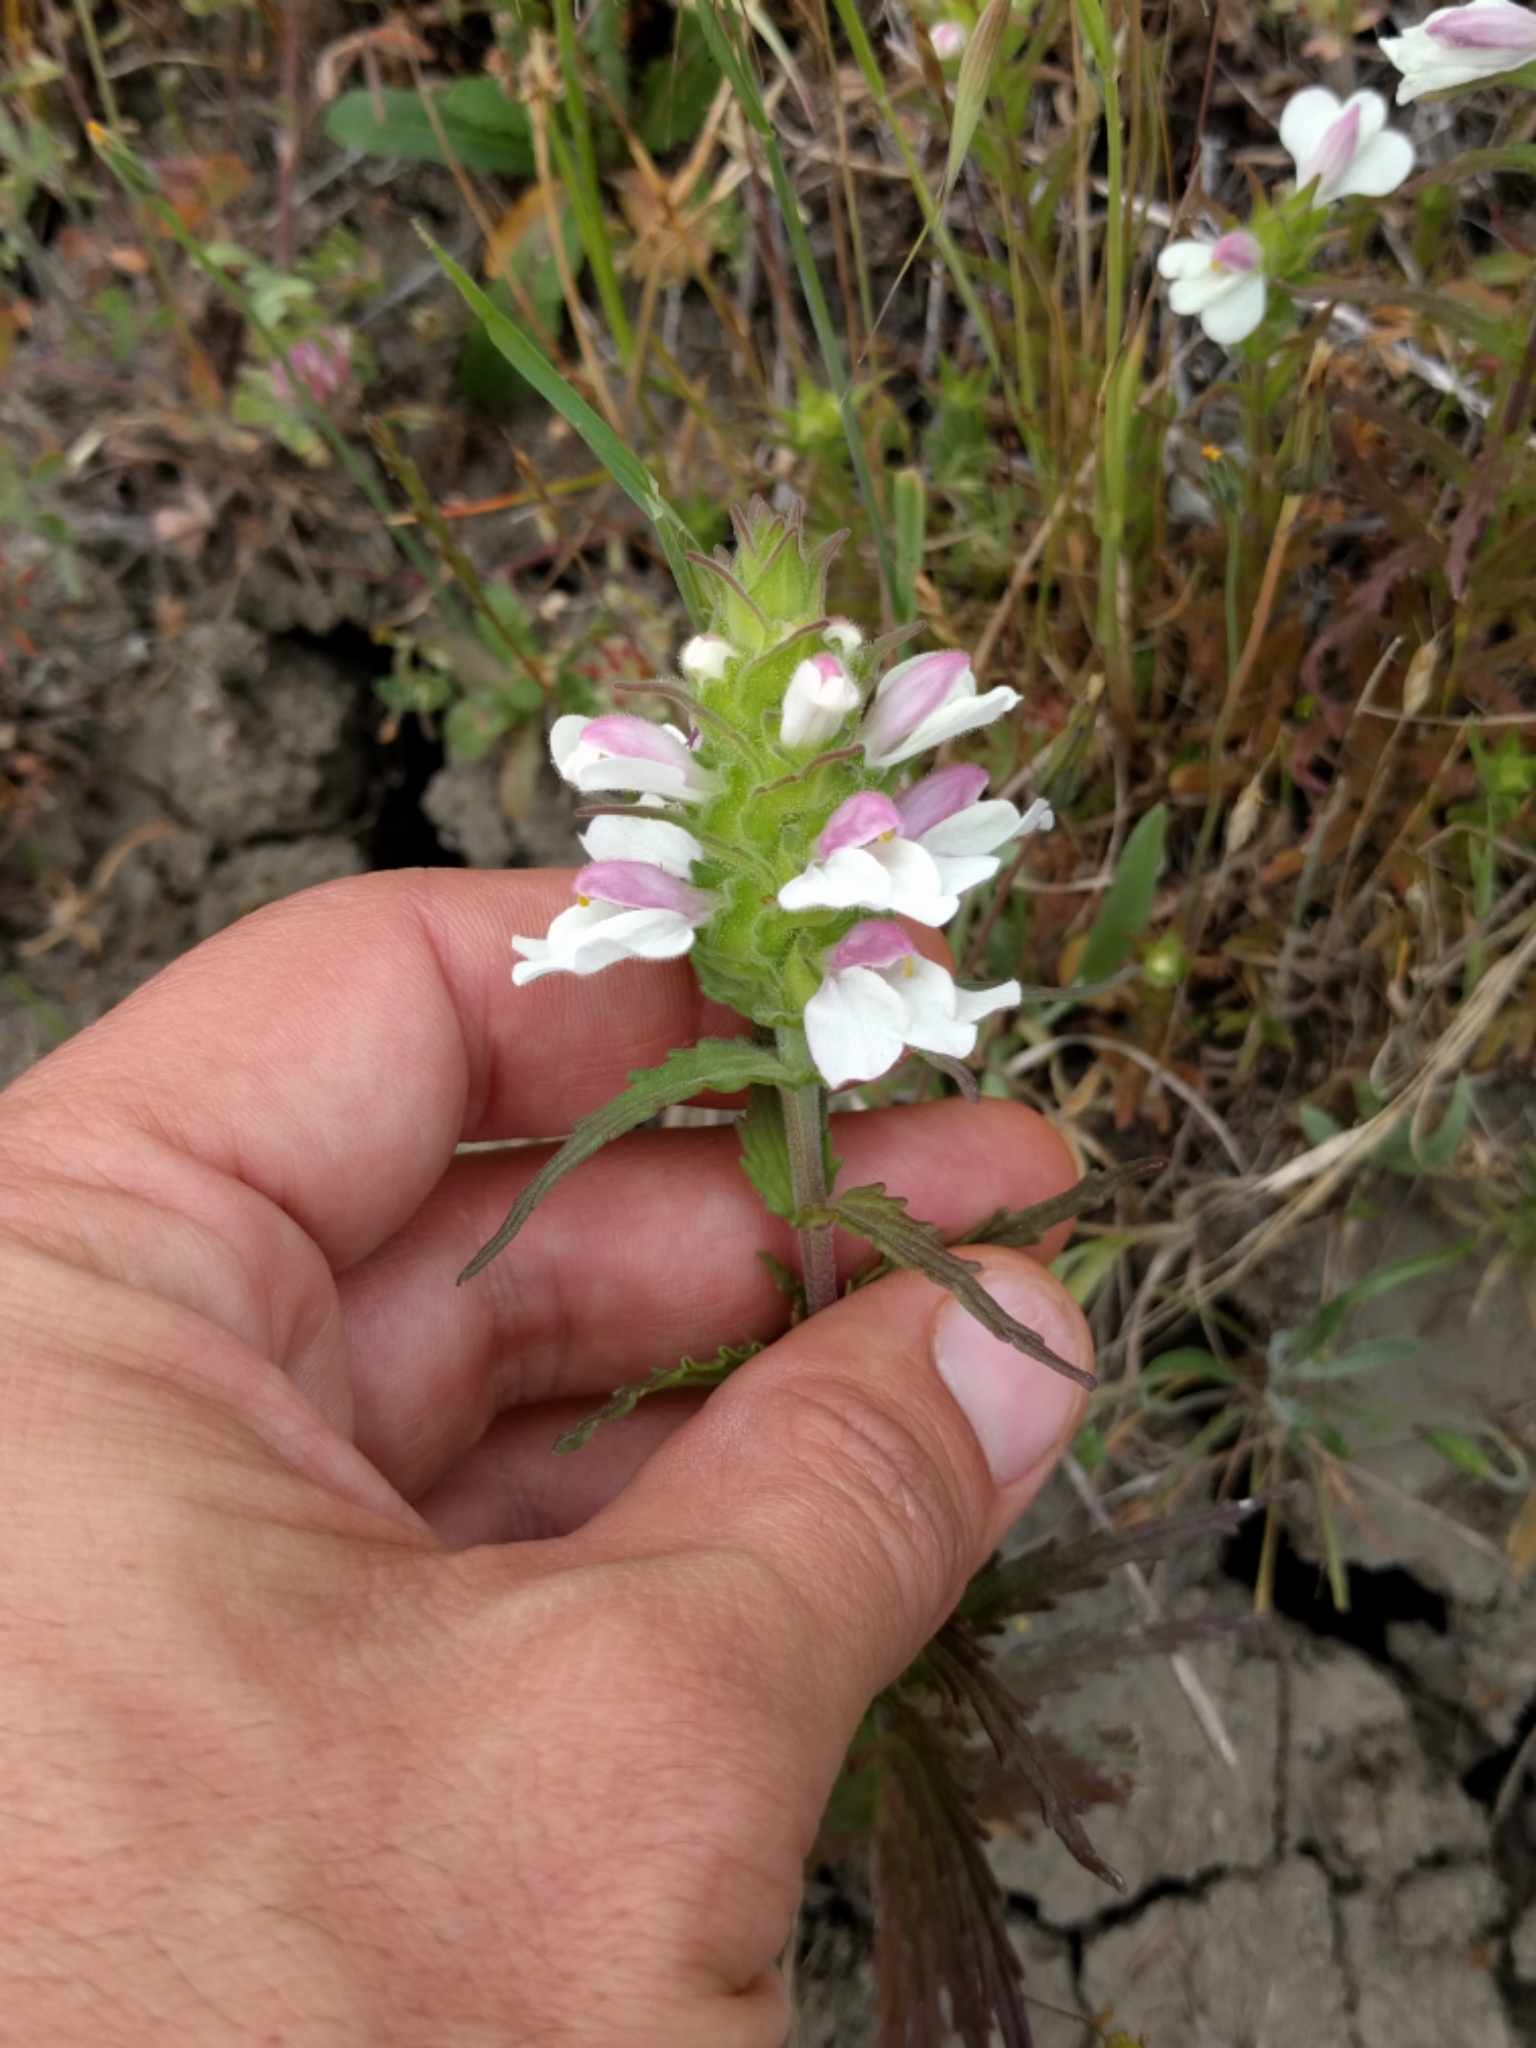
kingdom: Plantae
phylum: Tracheophyta
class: Magnoliopsida
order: Lamiales
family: Orobanchaceae
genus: Bellardia
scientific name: Bellardia trixago
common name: Mediterranean lineseed
